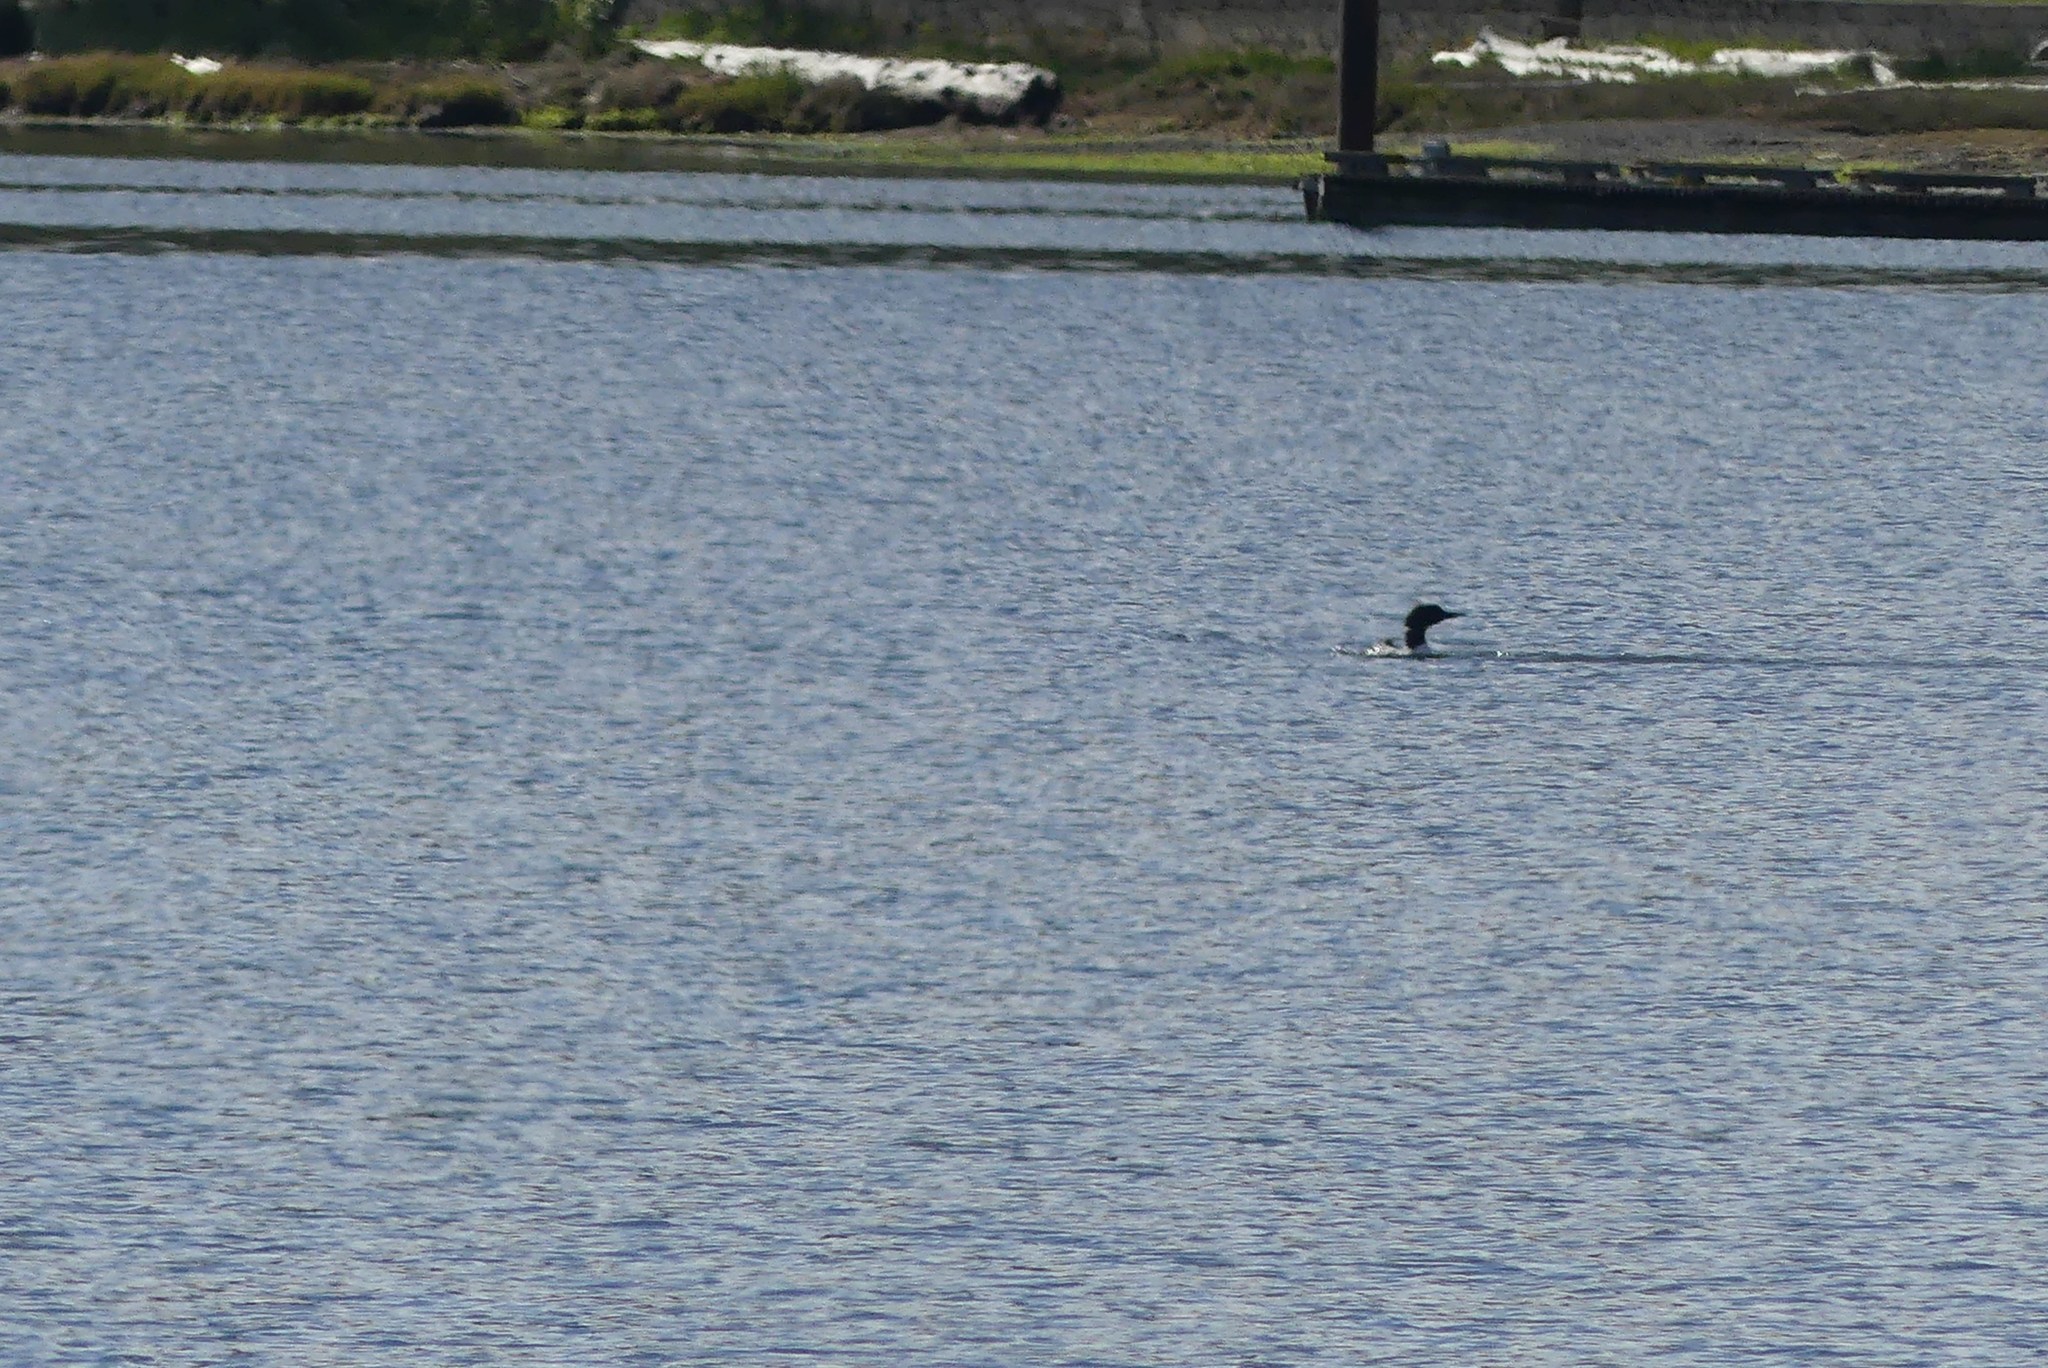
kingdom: Animalia
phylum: Chordata
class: Aves
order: Gaviiformes
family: Gaviidae
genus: Gavia
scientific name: Gavia immer
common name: Common loon
